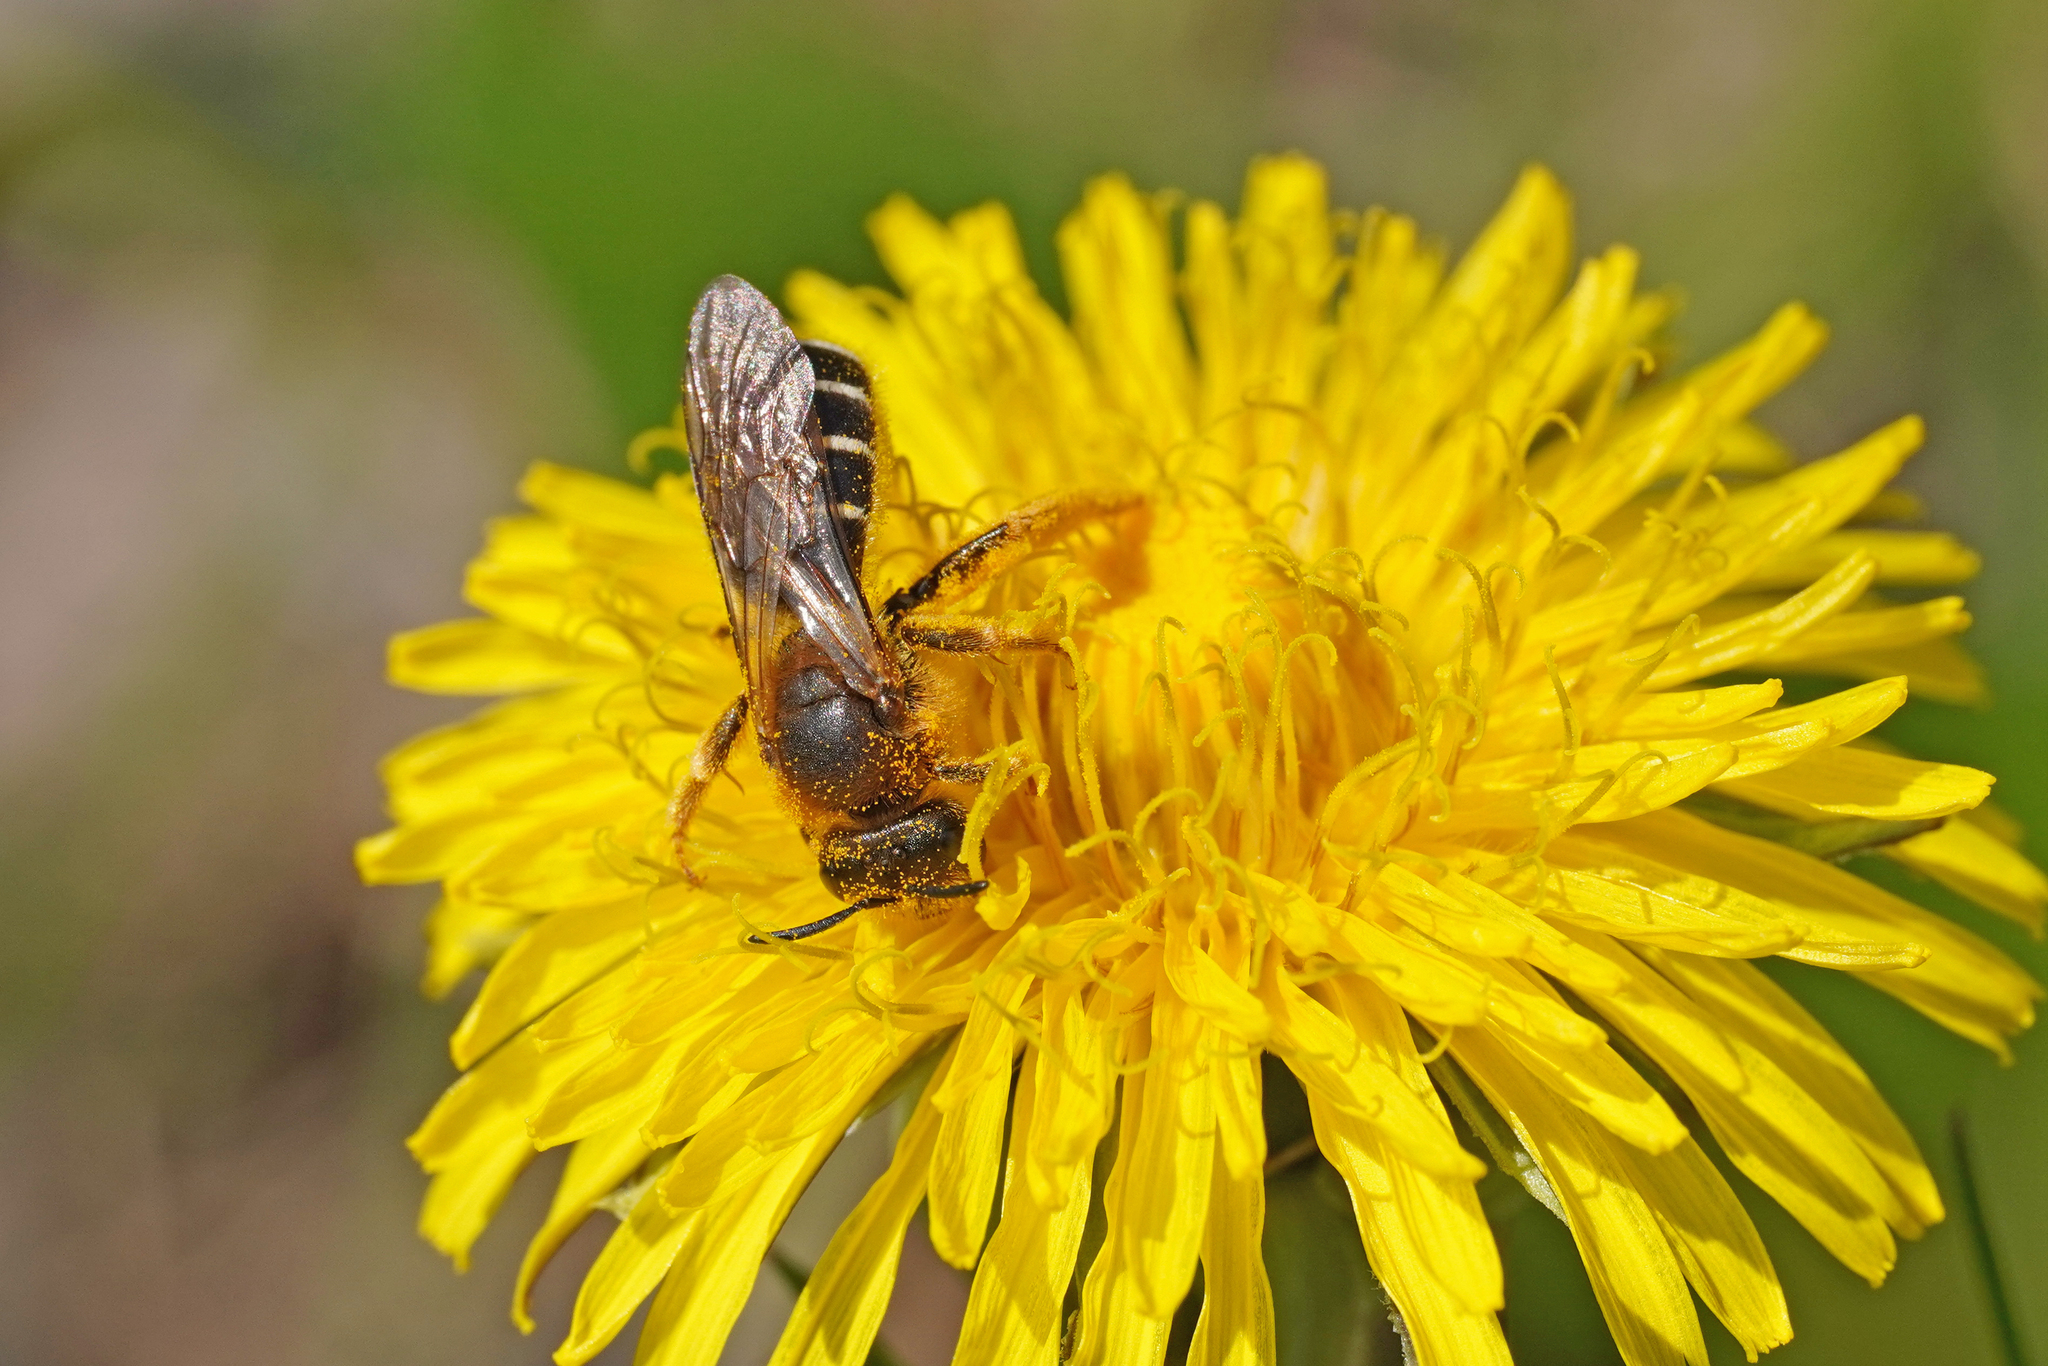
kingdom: Animalia
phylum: Arthropoda
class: Insecta
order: Hymenoptera
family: Halictidae
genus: Halictus
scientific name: Halictus rubicundus
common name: Orange-legged furrow bee
